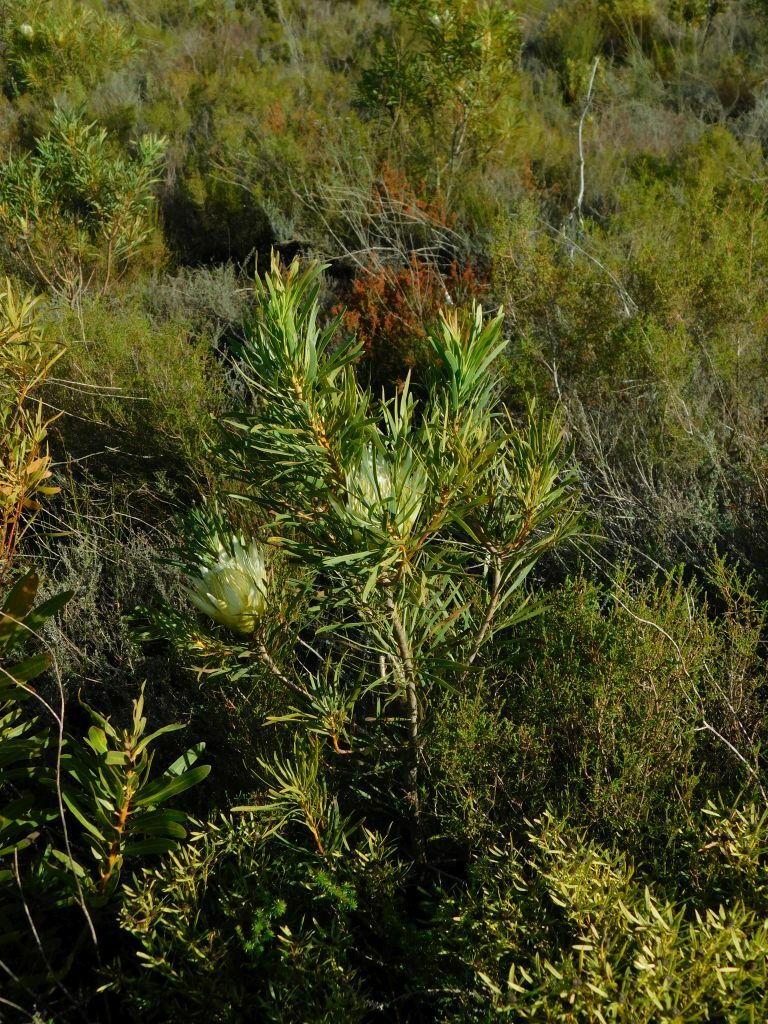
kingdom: Plantae
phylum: Tracheophyta
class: Magnoliopsida
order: Proteales
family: Proteaceae
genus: Protea
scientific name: Protea repens
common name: Sugarbush
